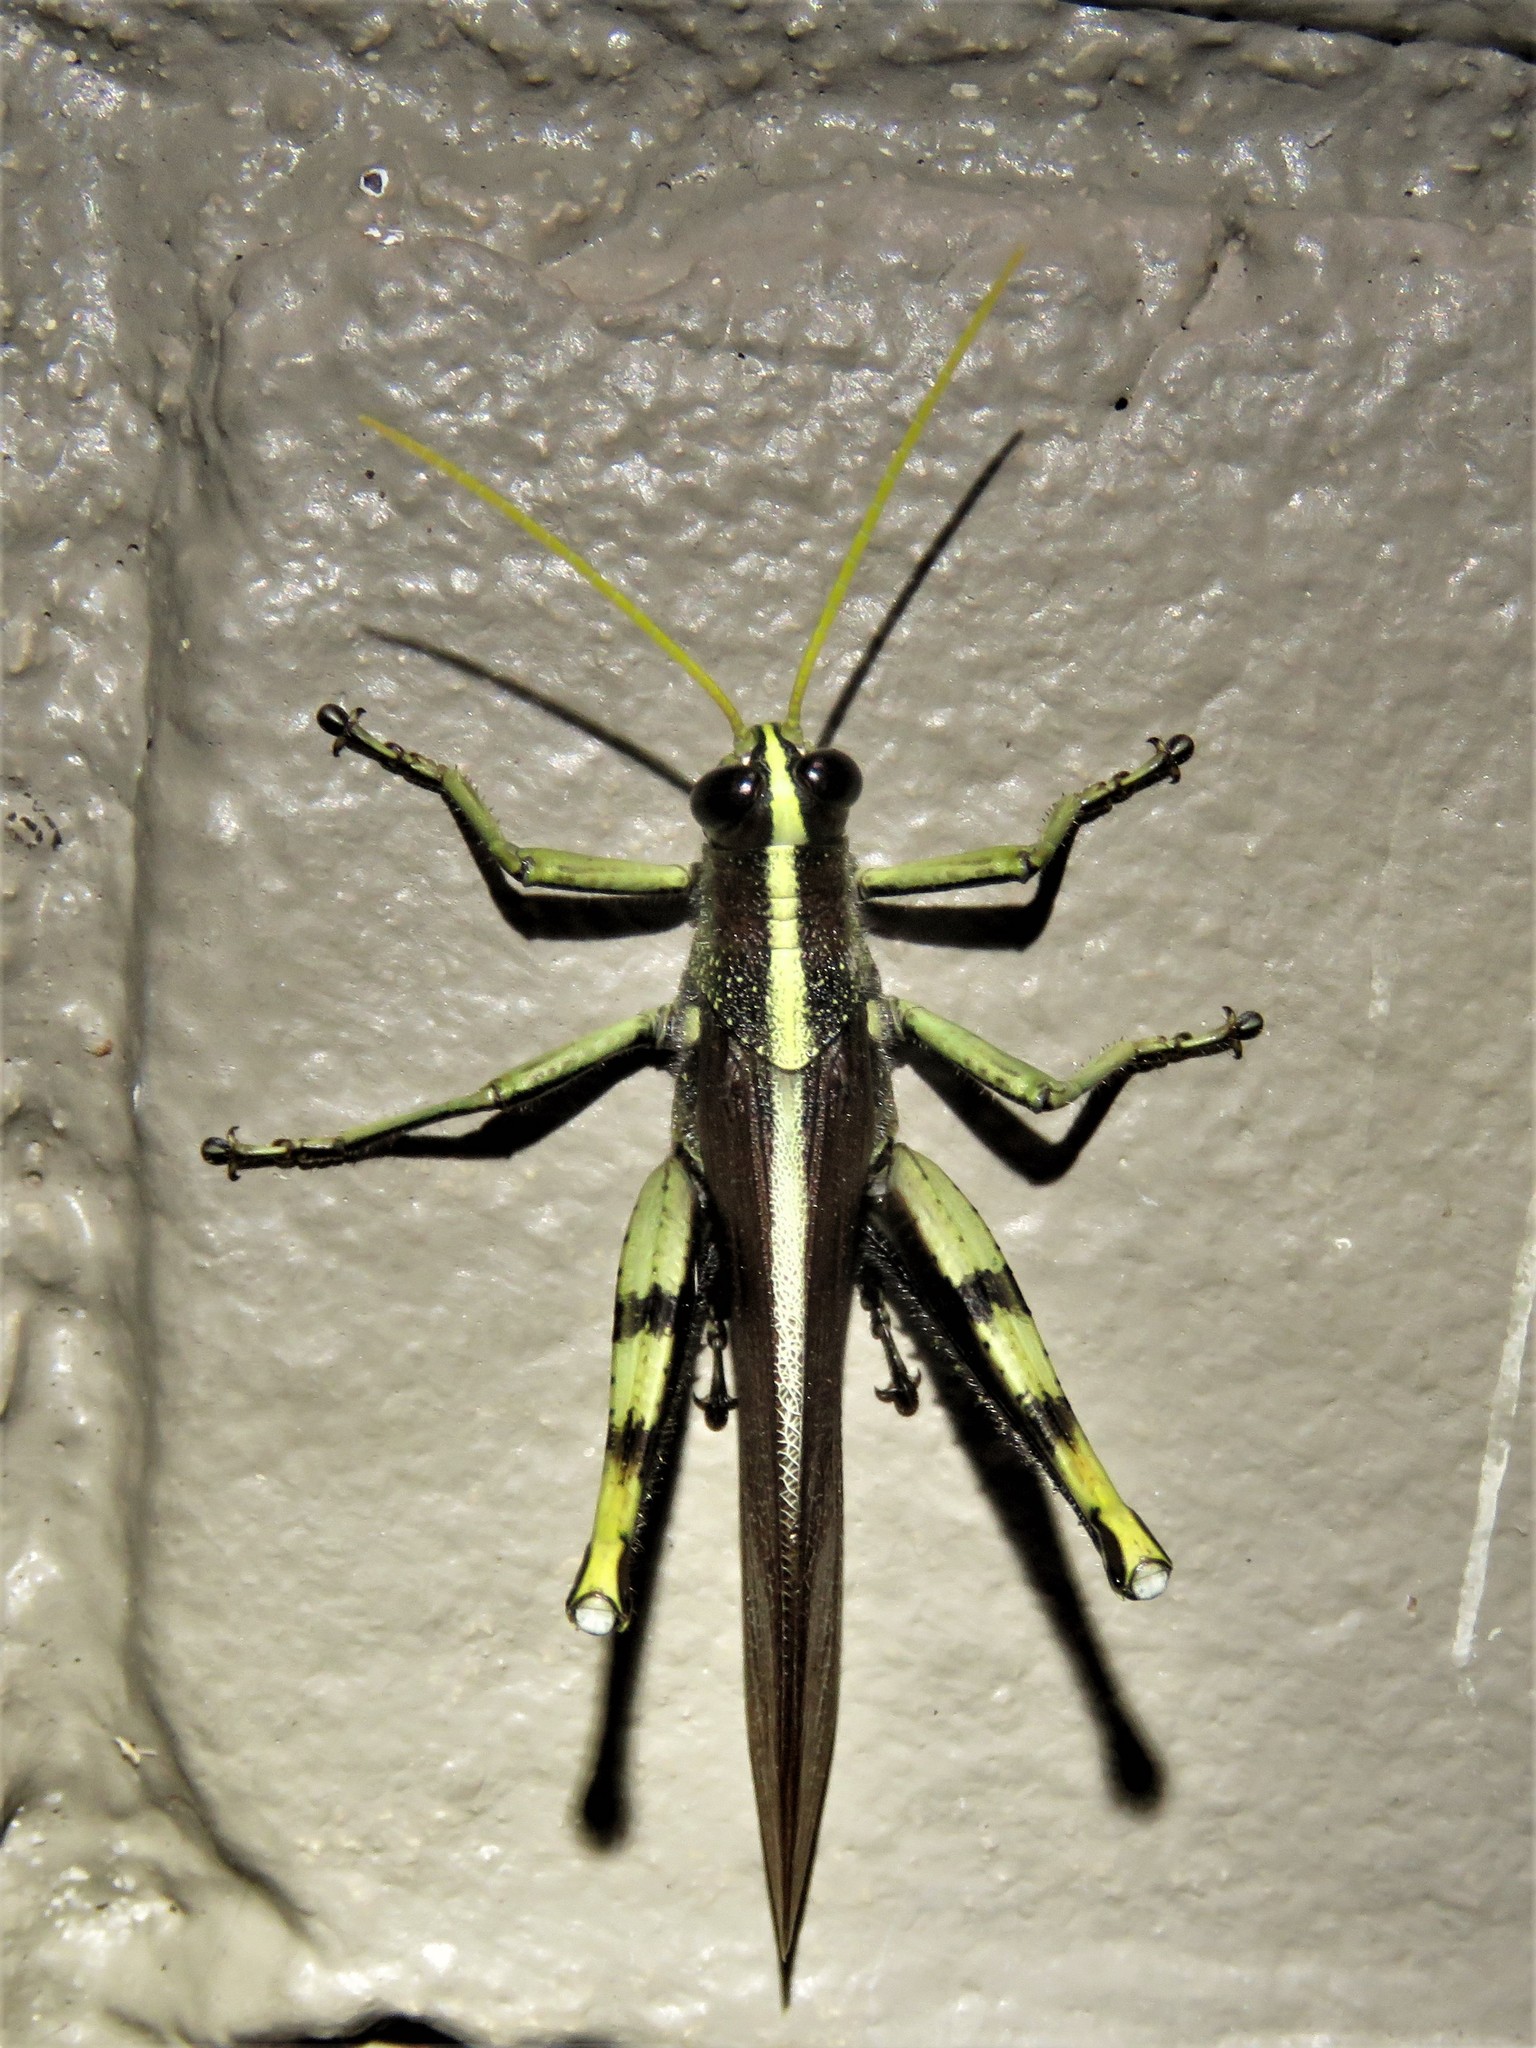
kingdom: Animalia
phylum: Arthropoda
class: Insecta
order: Orthoptera
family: Acrididae
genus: Schistocerca
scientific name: Schistocerca obscura
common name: Obscure bird grasshopper
